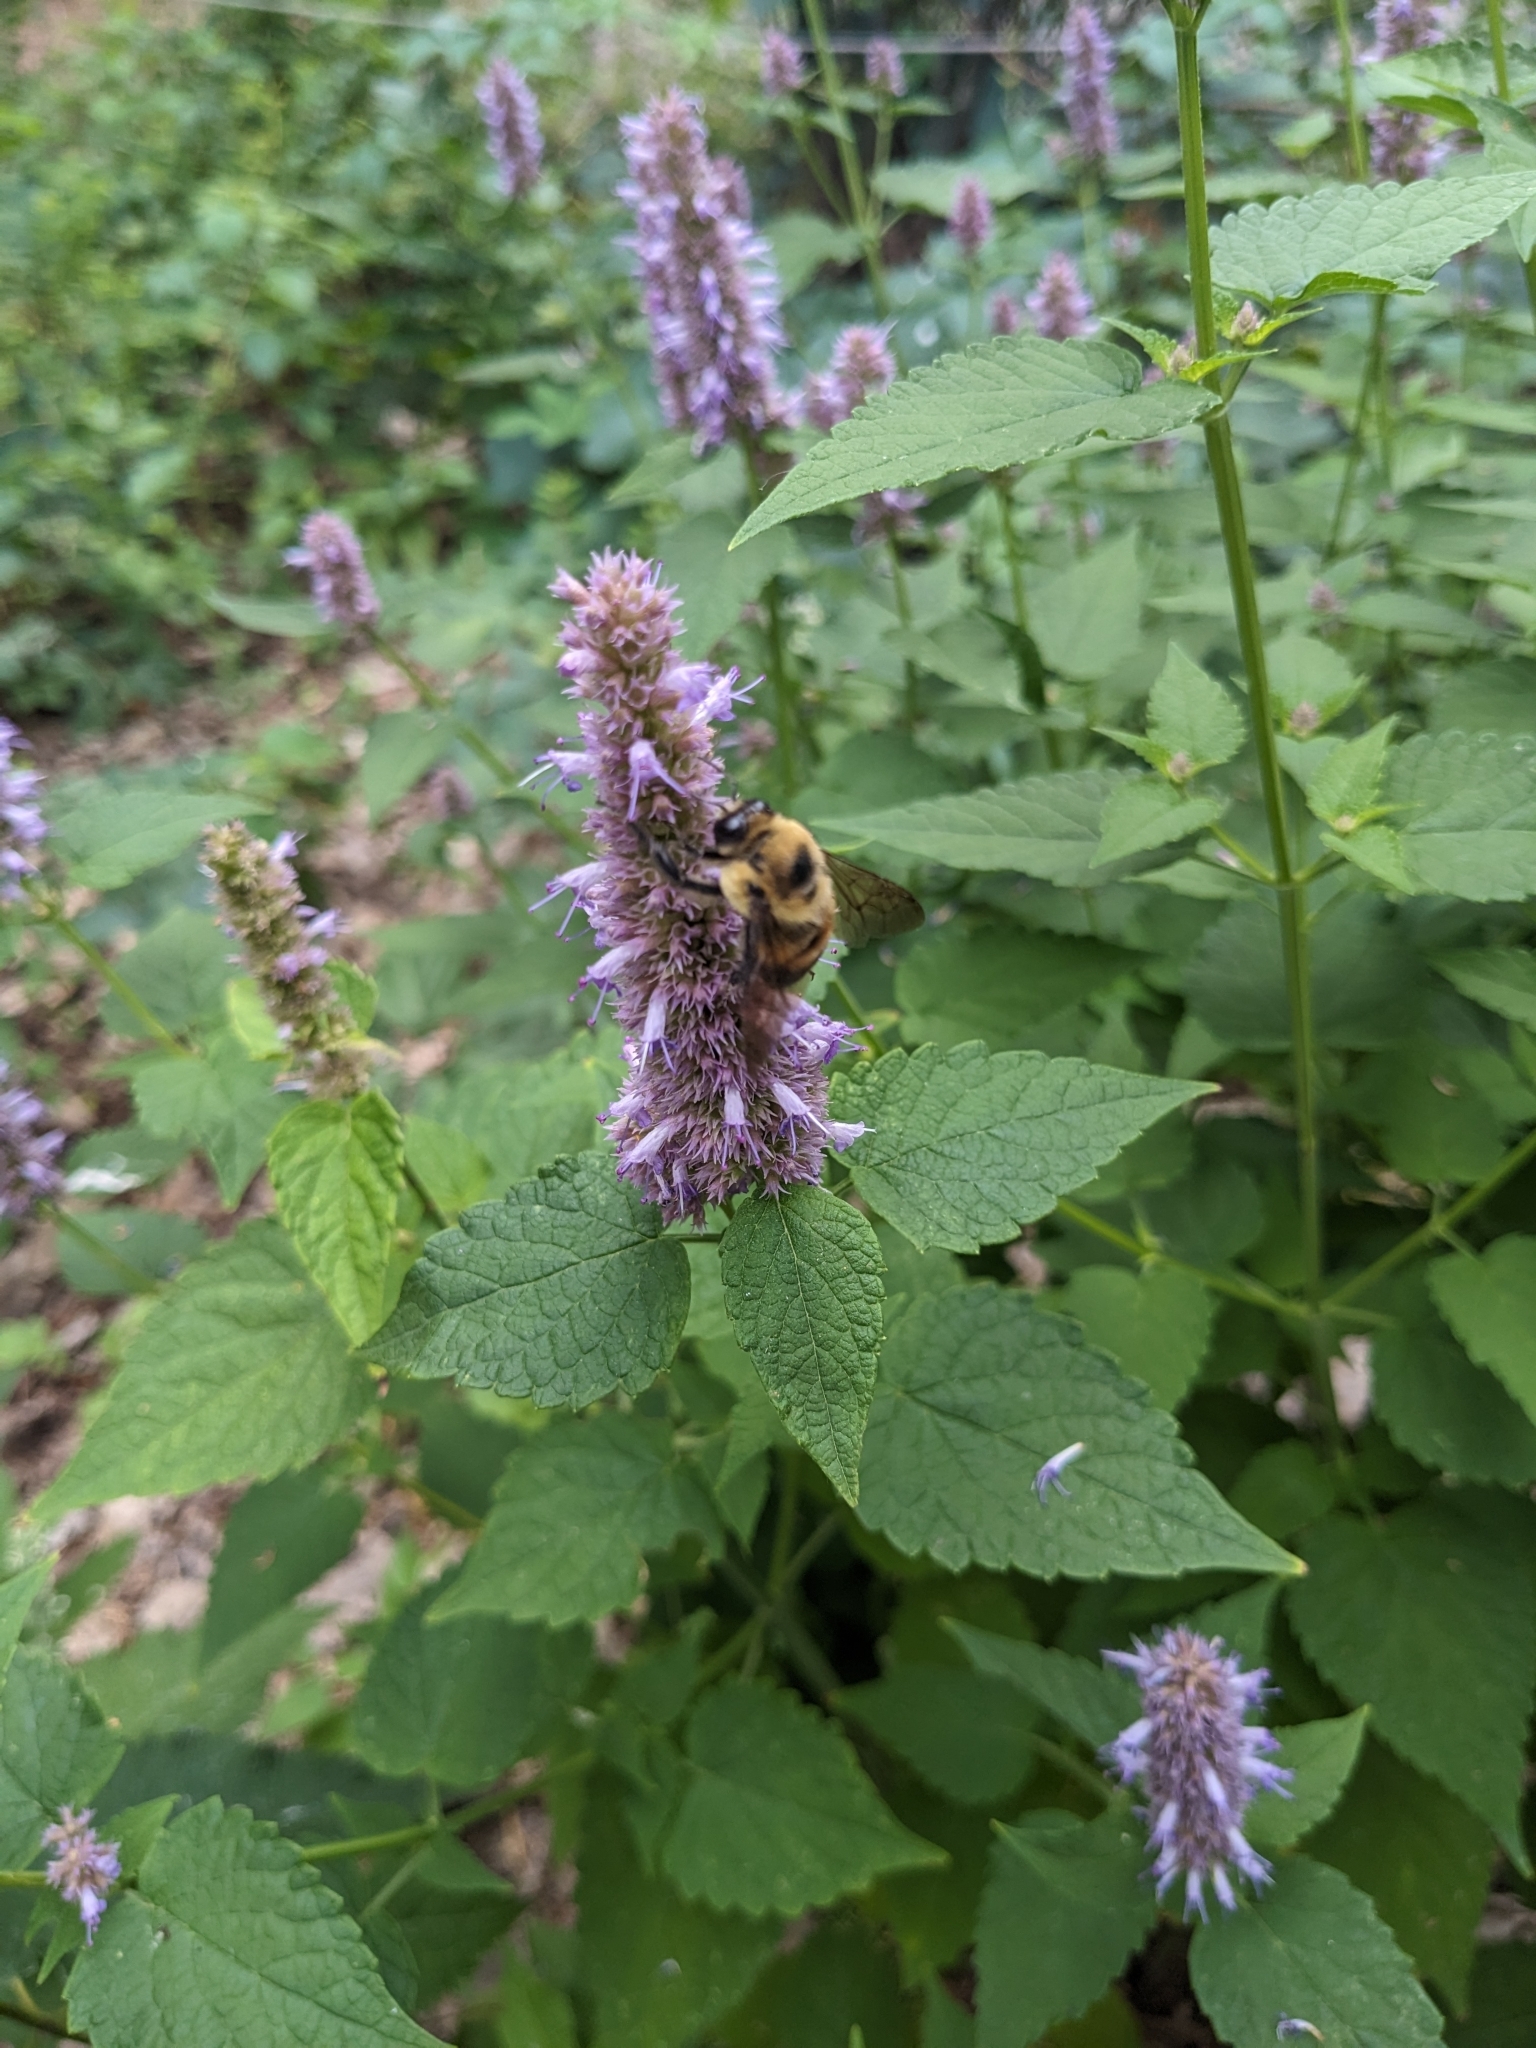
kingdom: Animalia
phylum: Arthropoda
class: Insecta
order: Hymenoptera
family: Apidae
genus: Bombus
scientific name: Bombus griseocollis
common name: Brown-belted bumble bee
